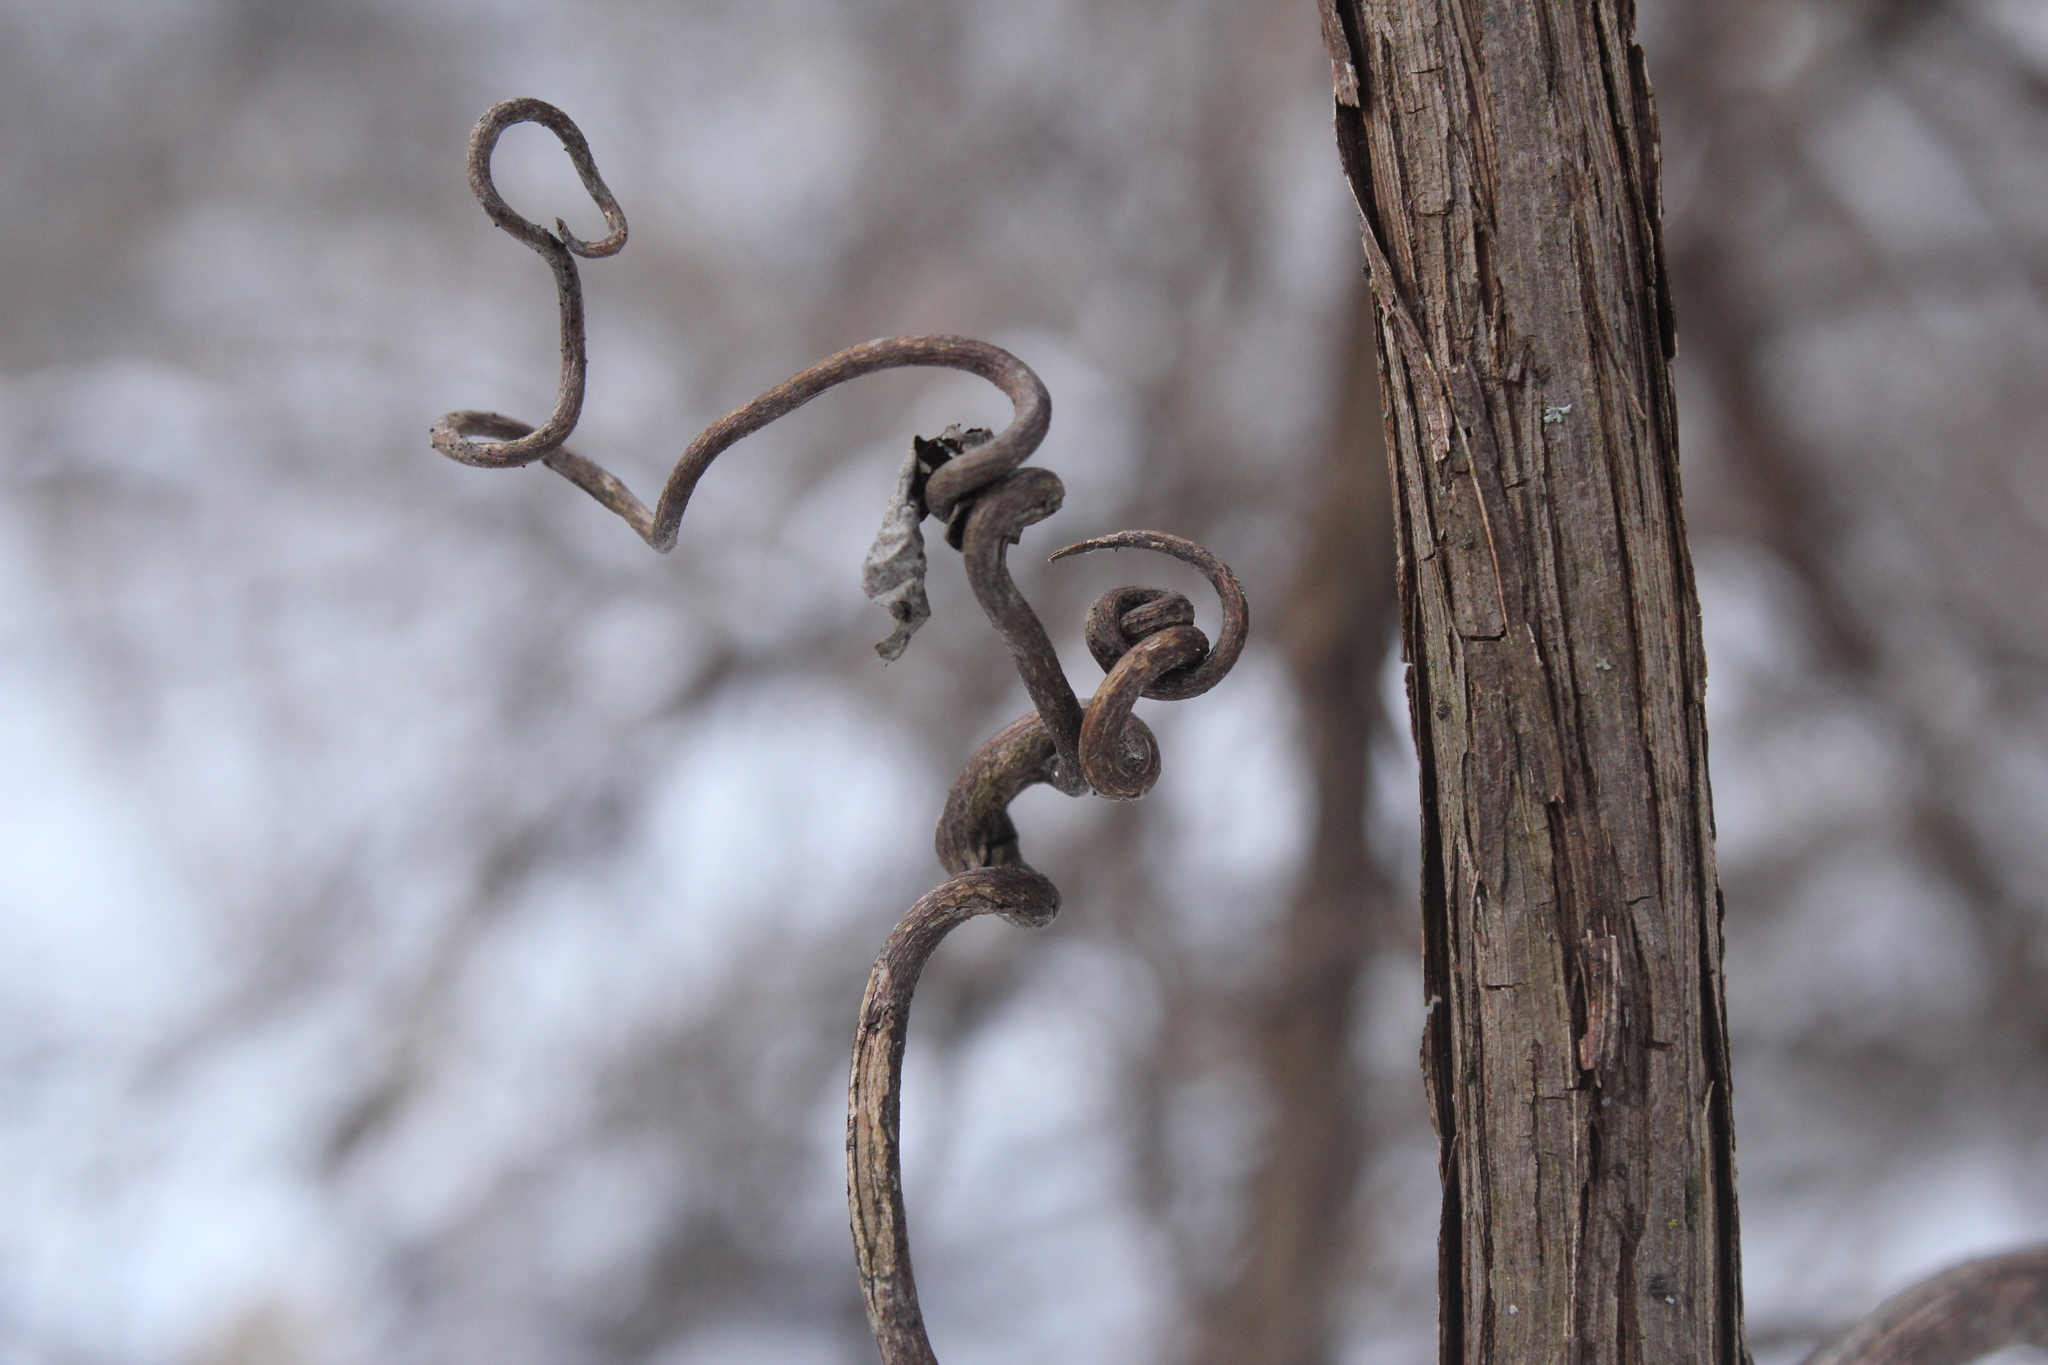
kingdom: Plantae
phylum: Tracheophyta
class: Magnoliopsida
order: Vitales
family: Vitaceae
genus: Vitis
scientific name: Vitis riparia
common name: Frost grape
